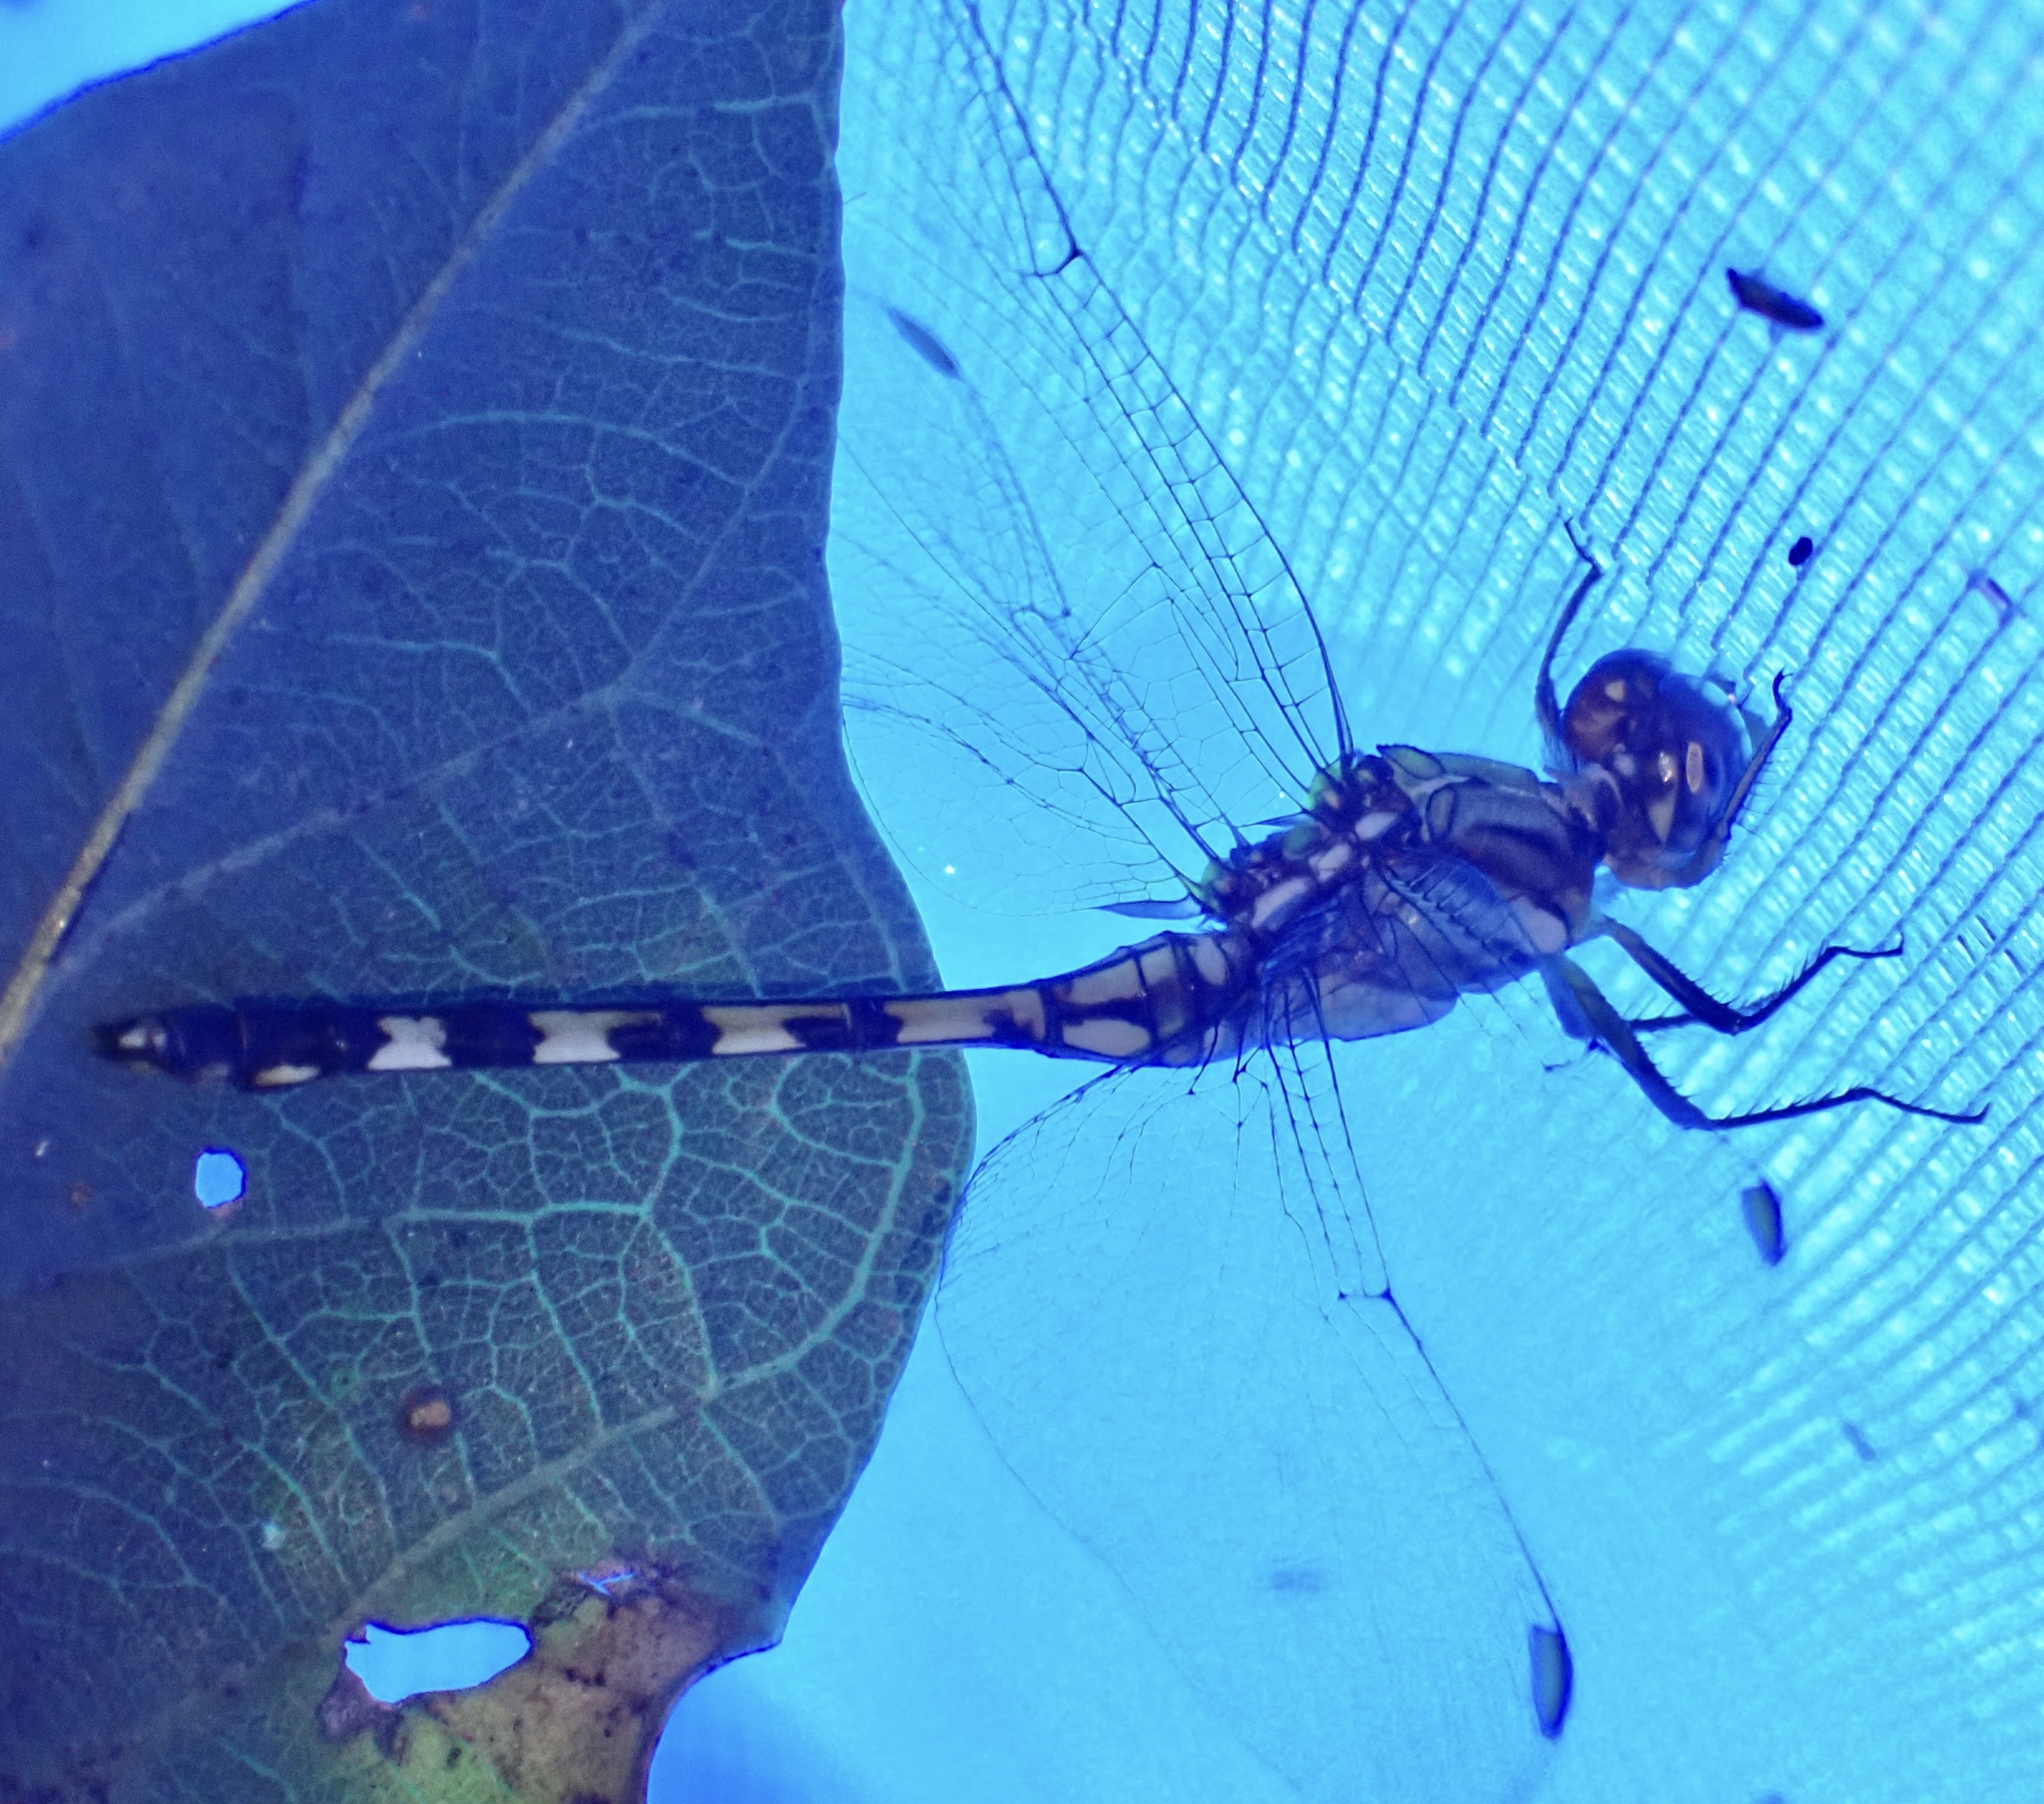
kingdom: Animalia
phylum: Arthropoda
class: Insecta
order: Odonata
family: Libellulidae
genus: Orthetrum
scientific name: Orthetrum brachiale
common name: Banded skimmer
